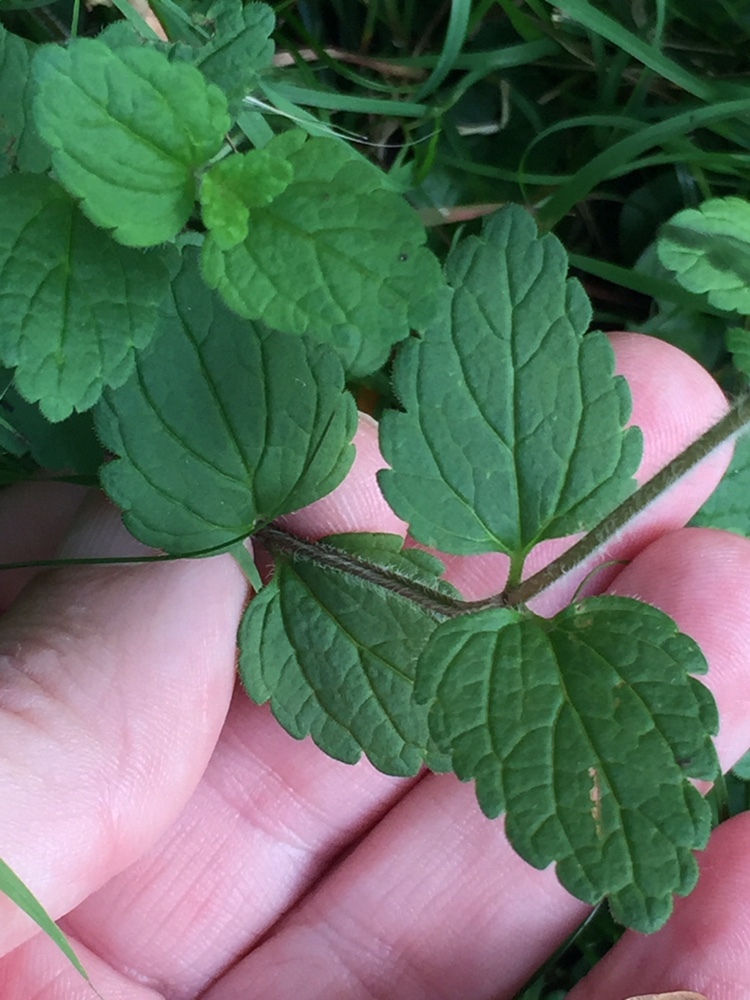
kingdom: Plantae
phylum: Tracheophyta
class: Magnoliopsida
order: Lamiales
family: Plantaginaceae
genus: Veronica
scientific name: Veronica chamaedrys
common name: Germander speedwell
